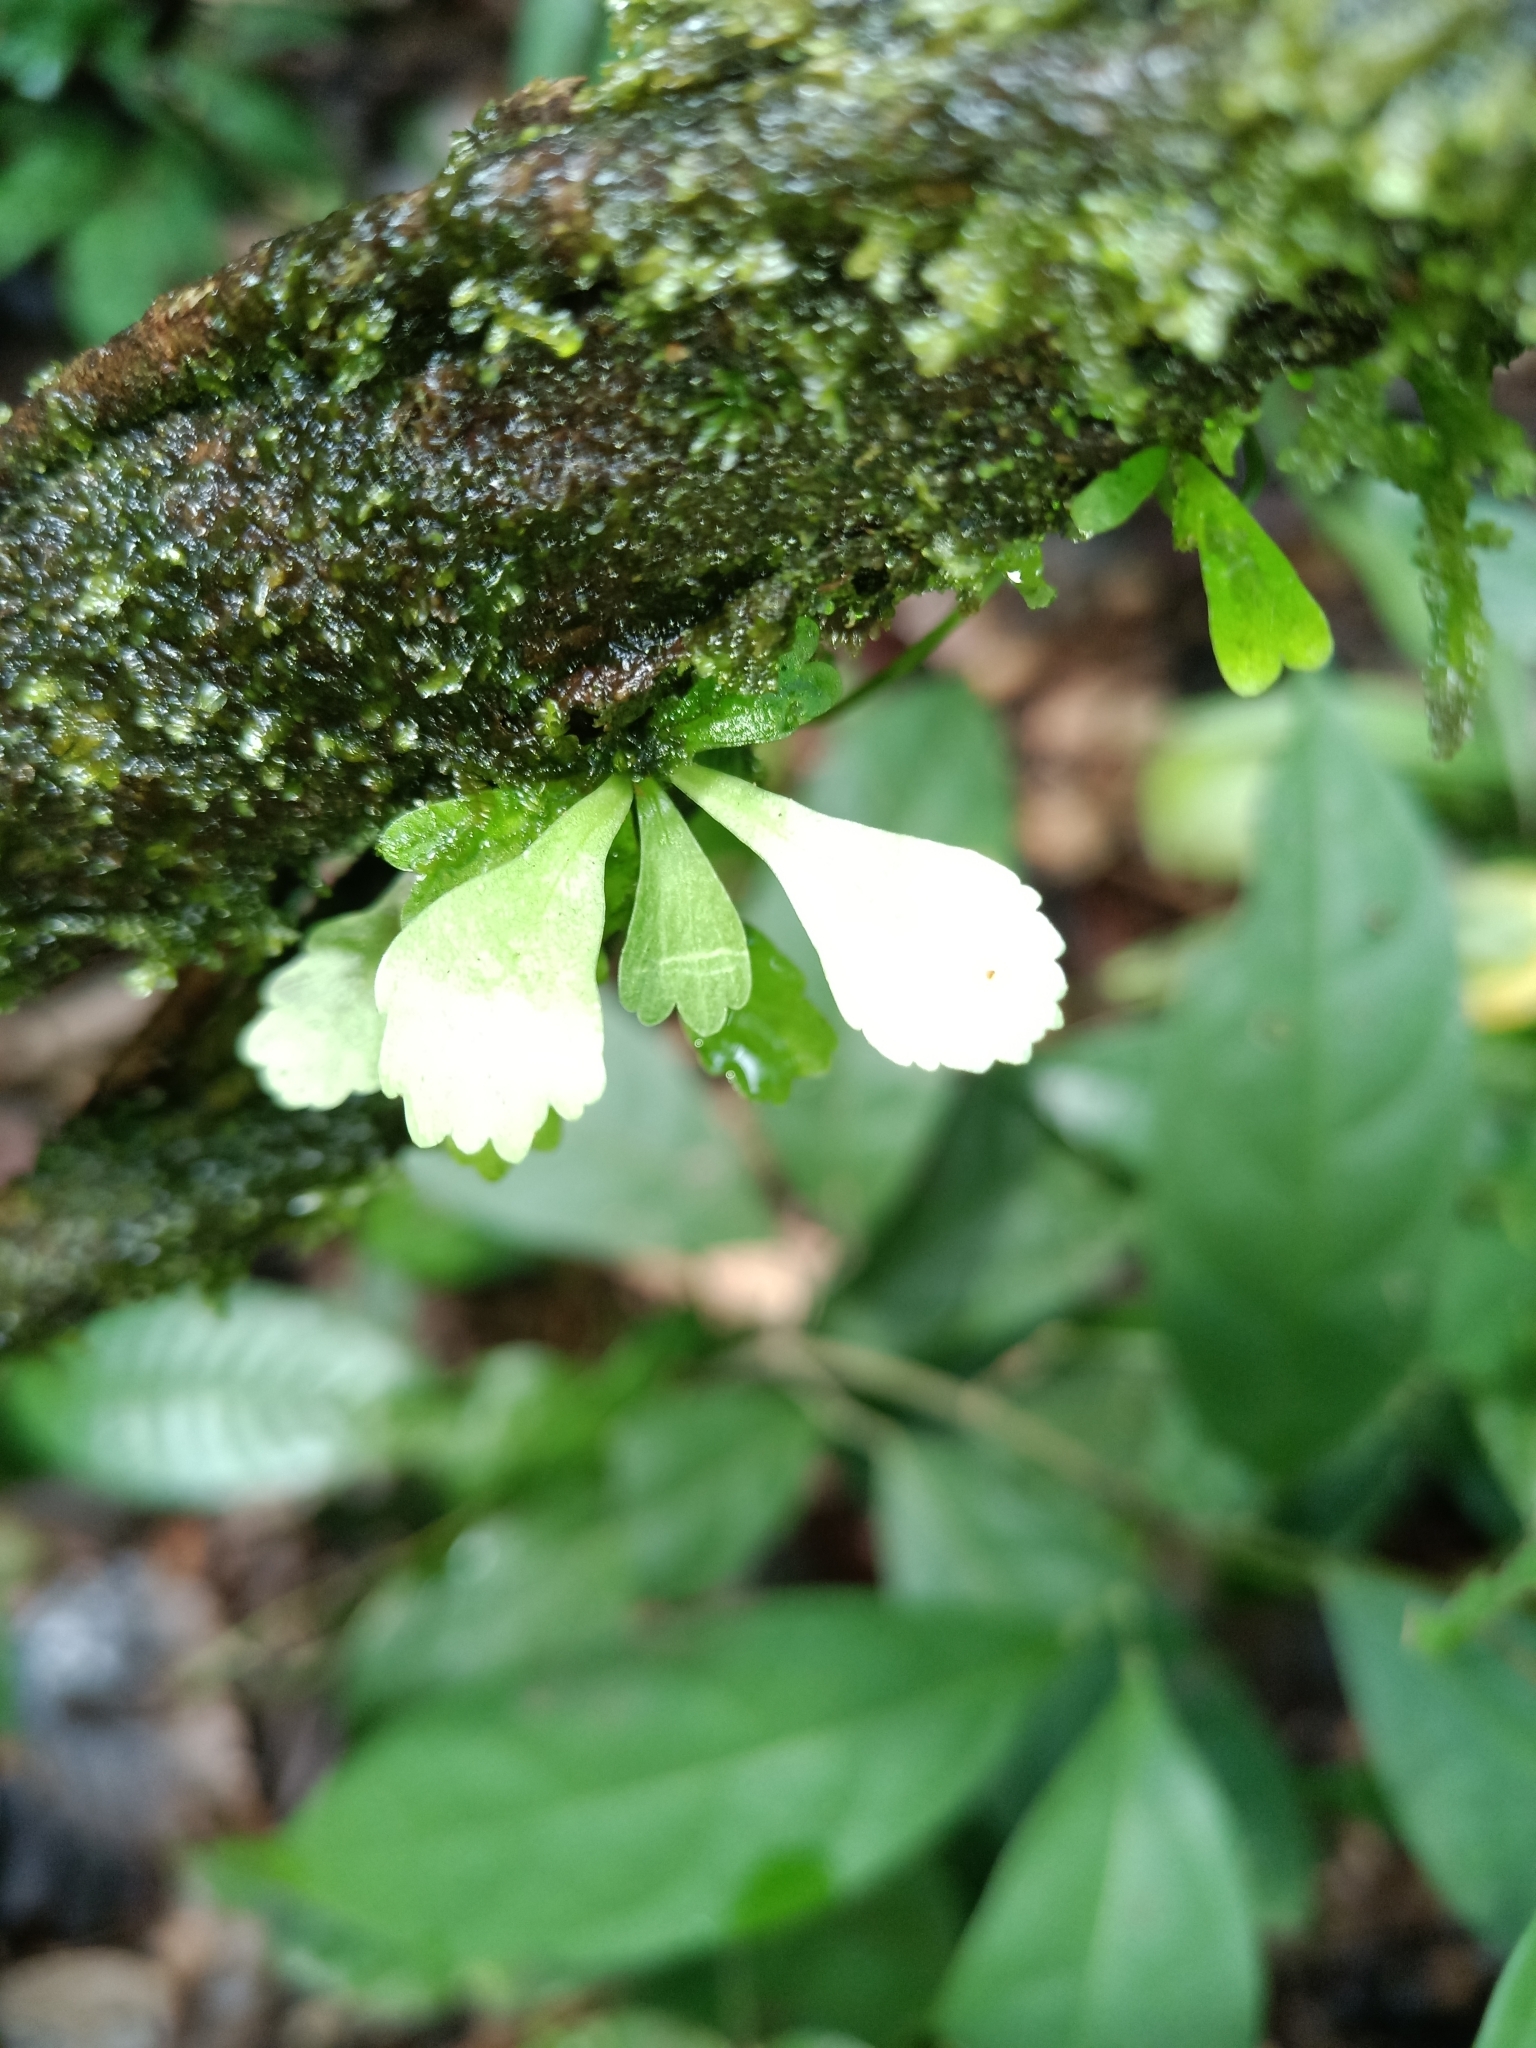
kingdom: Plantae
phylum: Tracheophyta
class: Polypodiopsida
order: Polypodiales
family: Pteridaceae
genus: Hecistopteris
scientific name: Hecistopteris pumila
